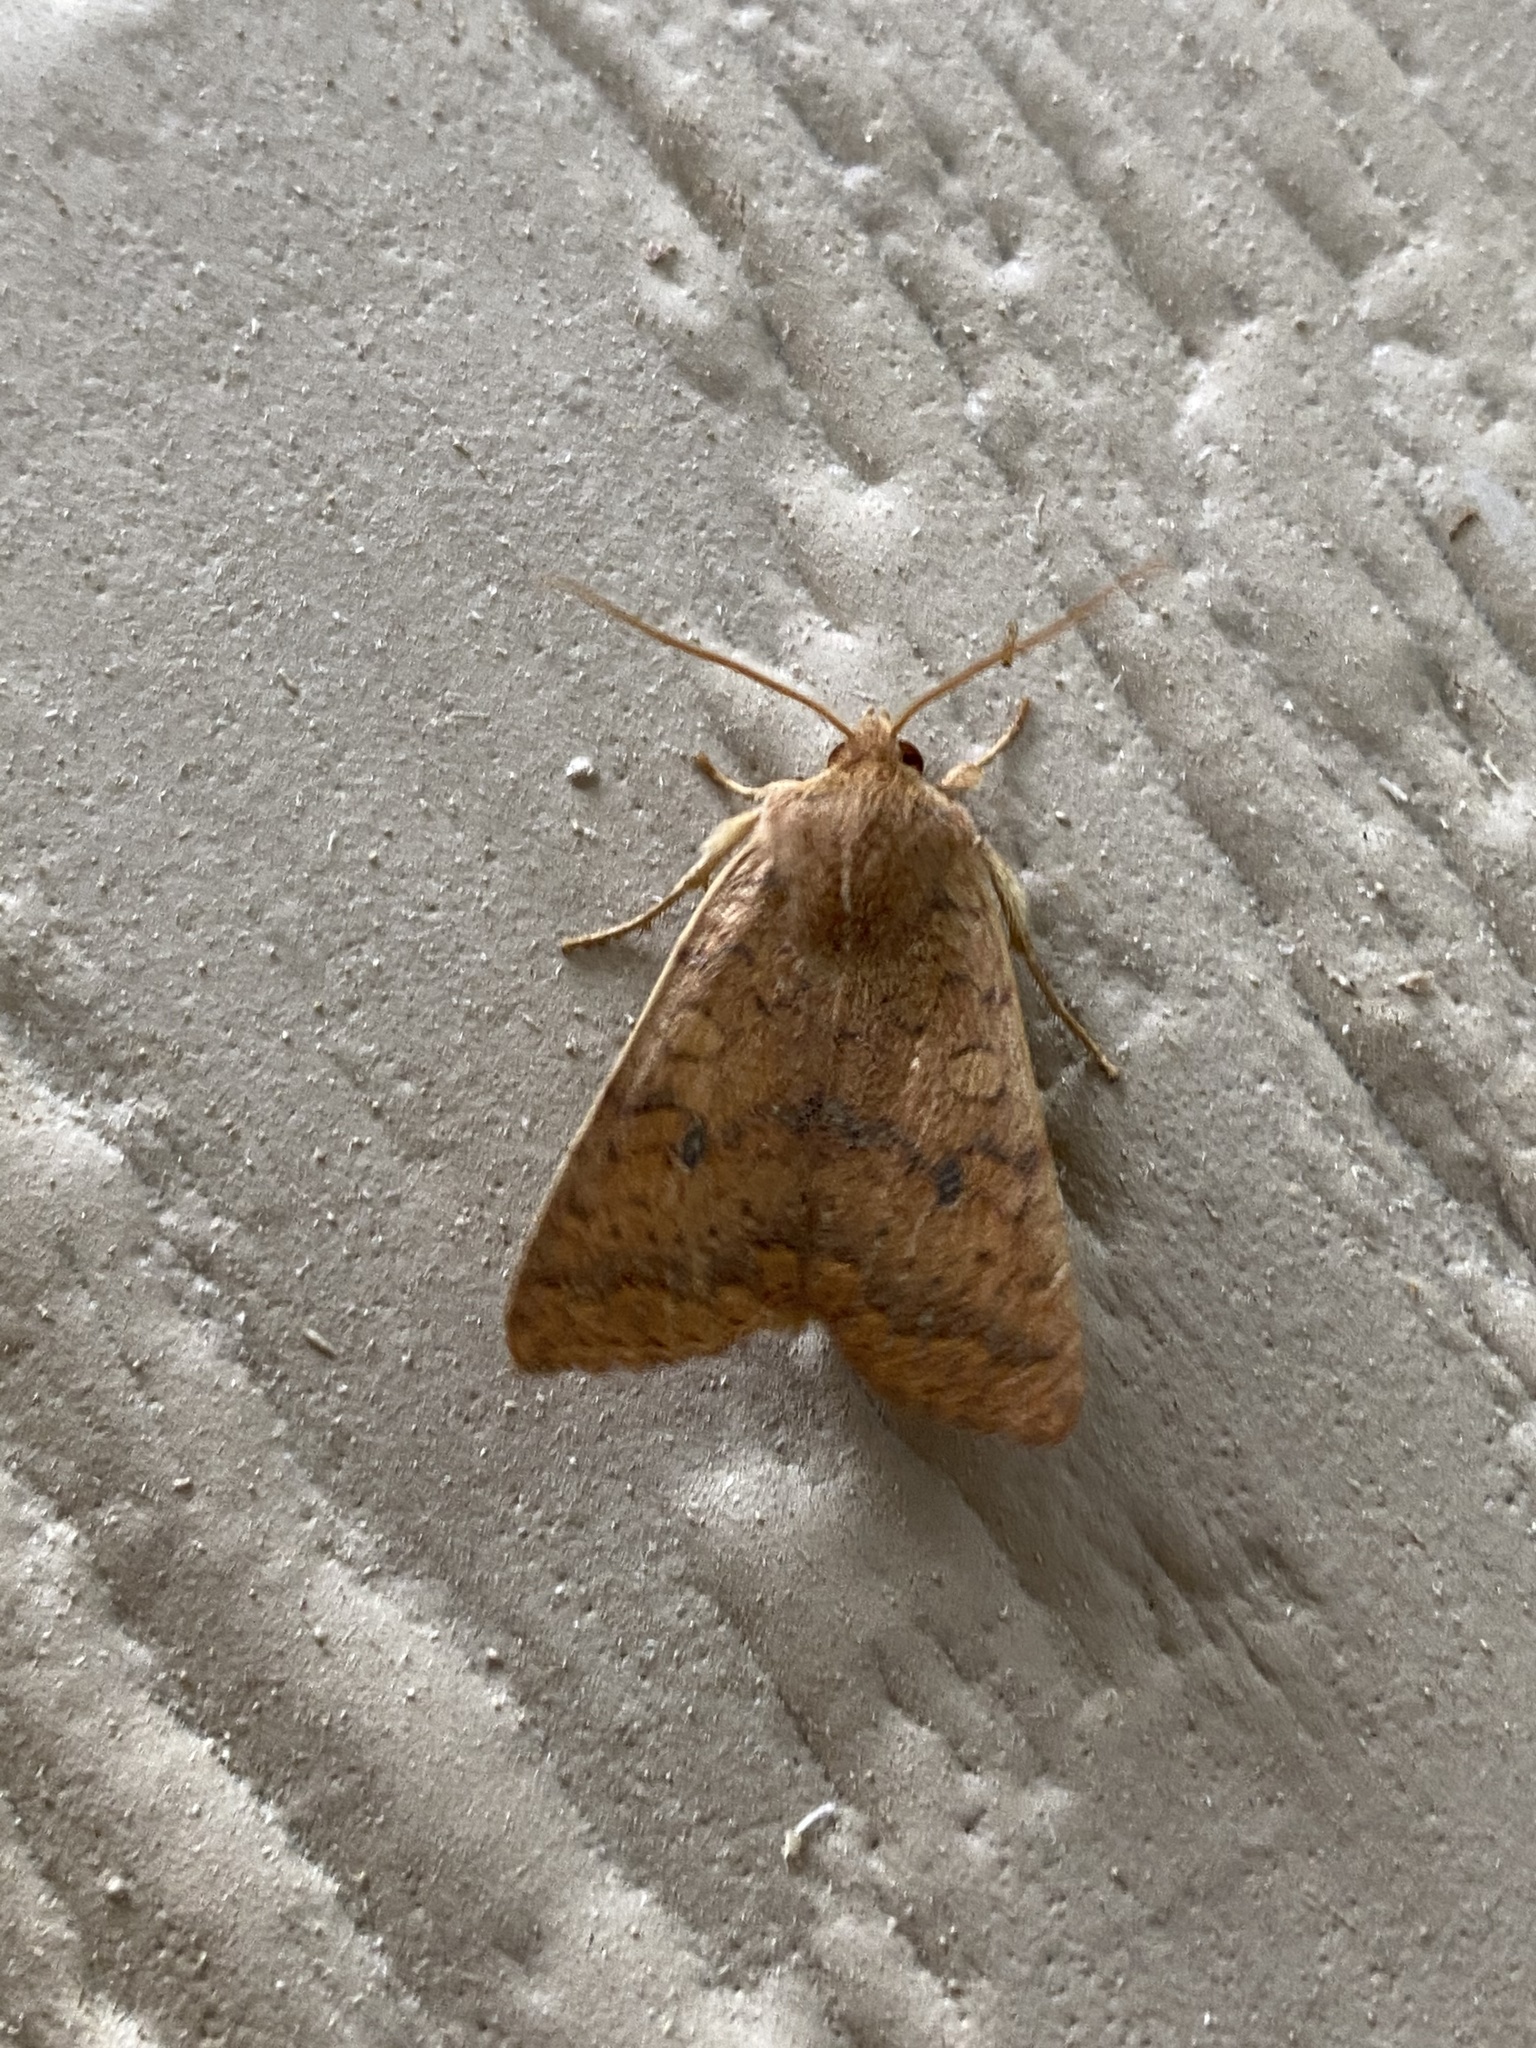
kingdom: Animalia
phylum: Arthropoda
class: Insecta
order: Lepidoptera
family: Noctuidae
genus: Agrochola
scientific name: Agrochola bicolorago
